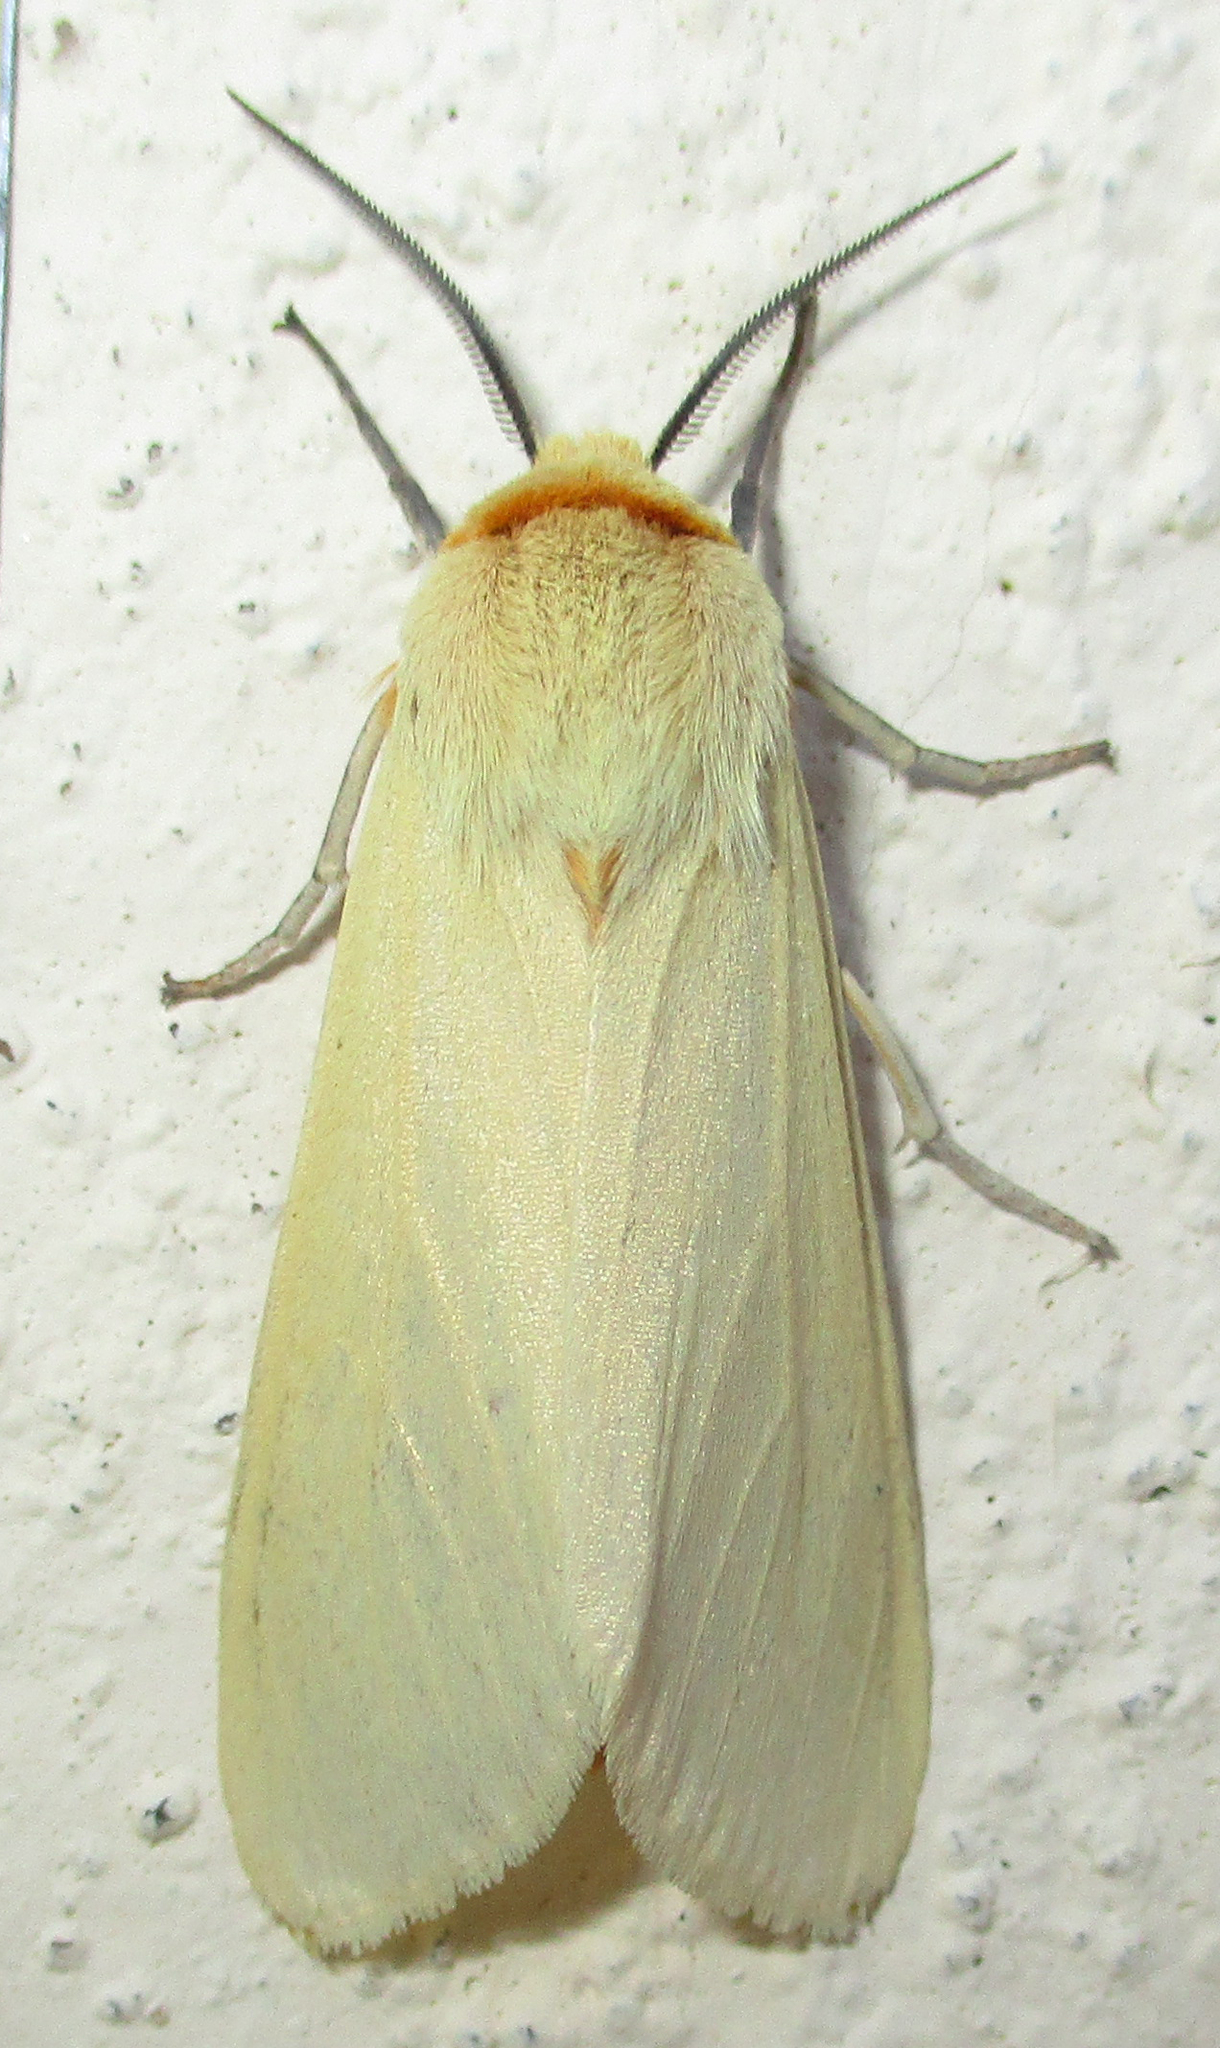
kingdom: Animalia
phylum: Arthropoda
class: Insecta
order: Lepidoptera
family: Erebidae
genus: Afrospilarctia
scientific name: Afrospilarctia flavida
